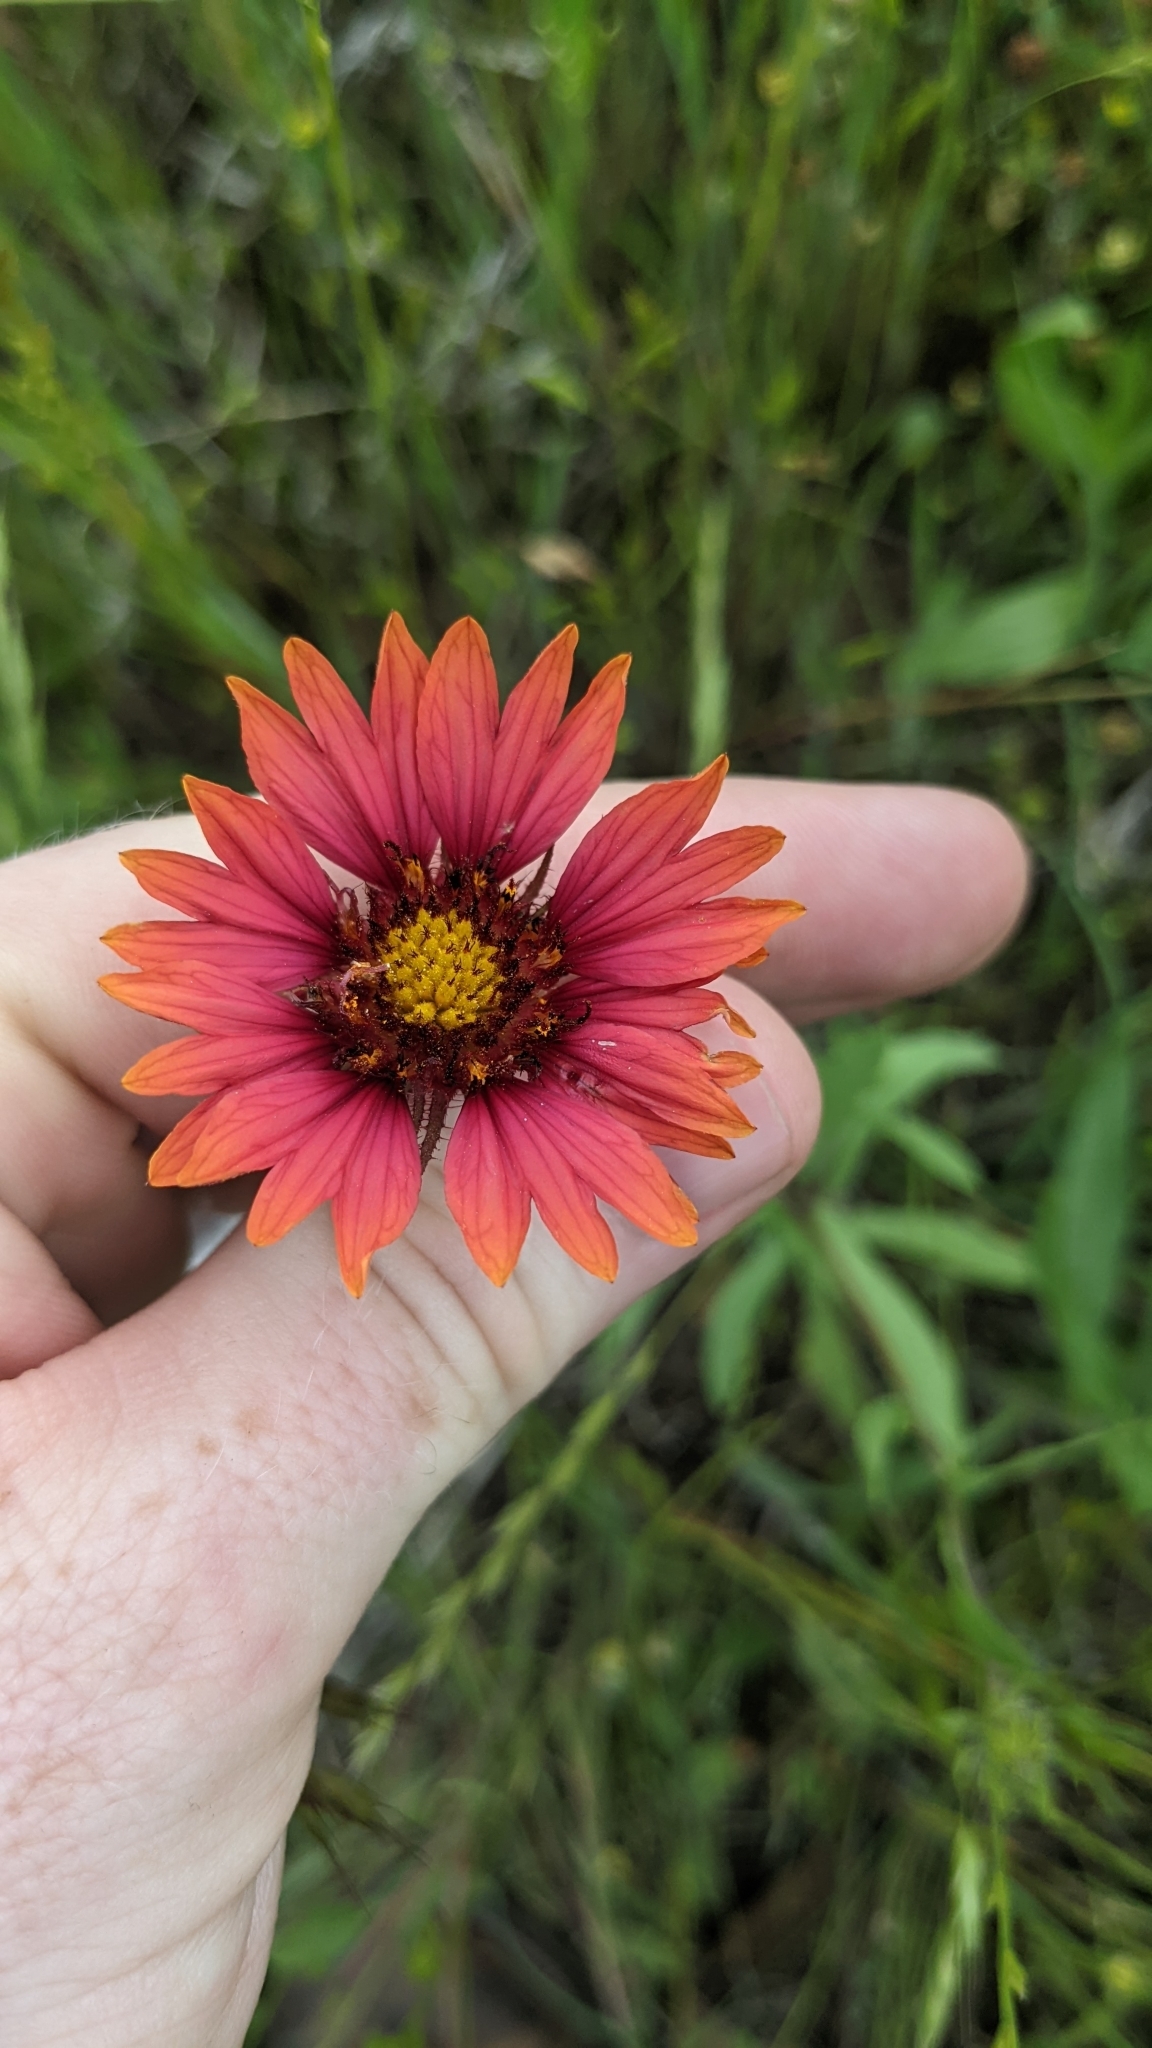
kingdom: Plantae
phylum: Tracheophyta
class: Magnoliopsida
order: Asterales
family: Asteraceae
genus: Gaillardia
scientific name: Gaillardia pulchella
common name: Firewheel
